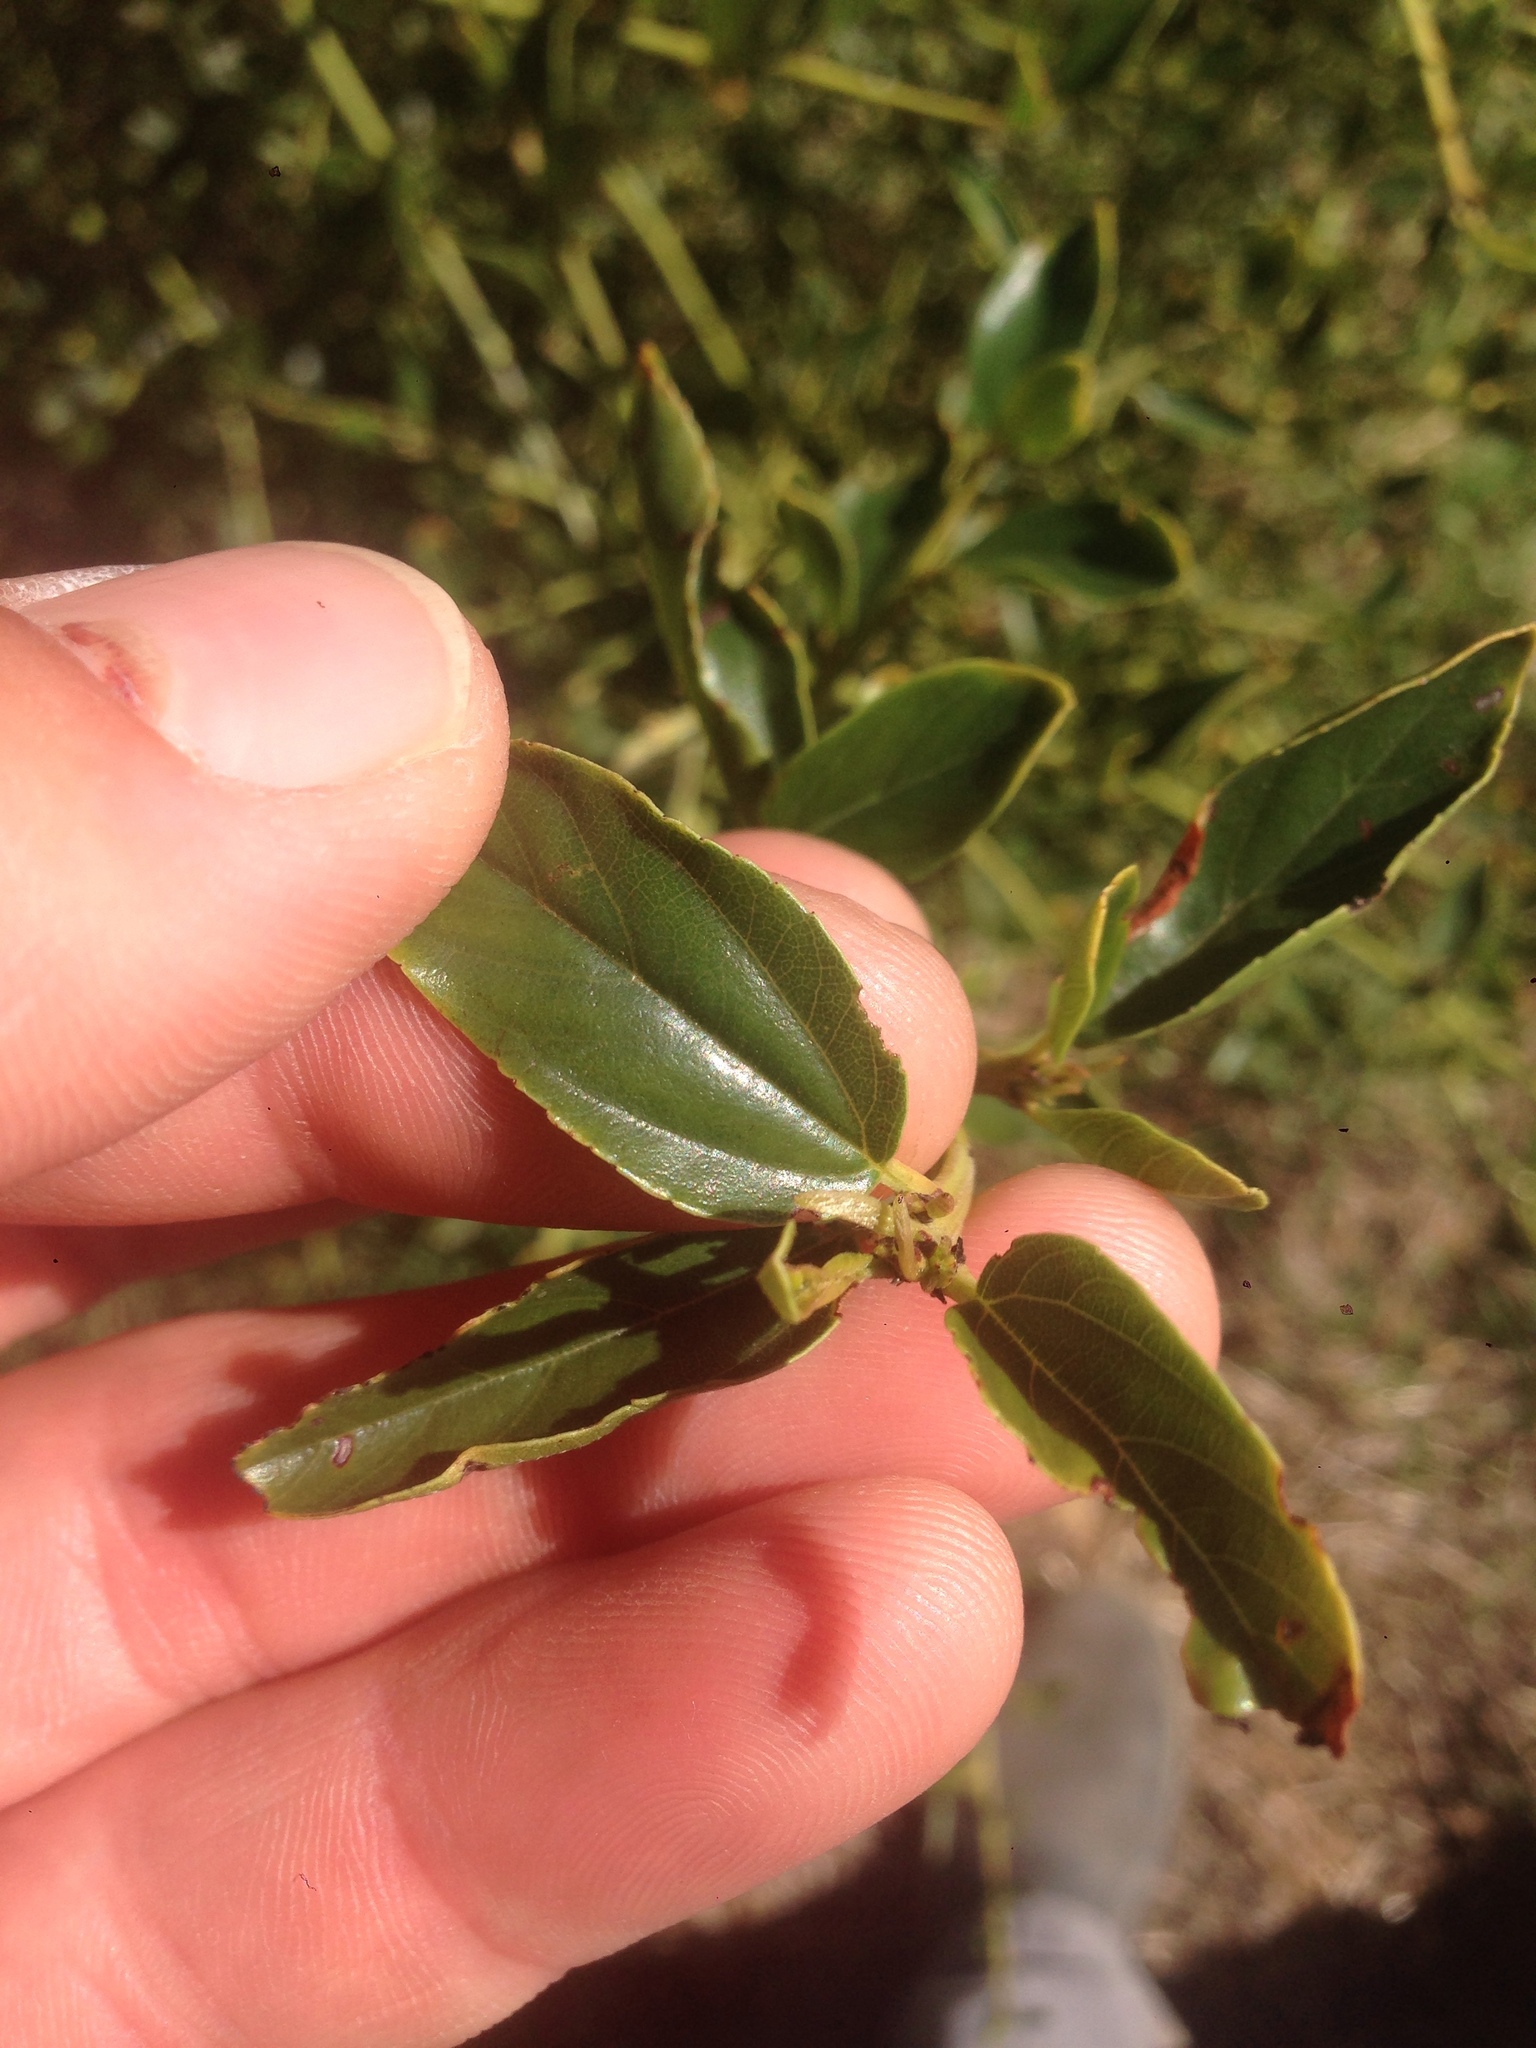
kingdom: Plantae
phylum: Tracheophyta
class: Magnoliopsida
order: Rosales
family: Rhamnaceae
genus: Ceanothus
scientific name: Ceanothus spinosus
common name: Greenbark whitethorn
